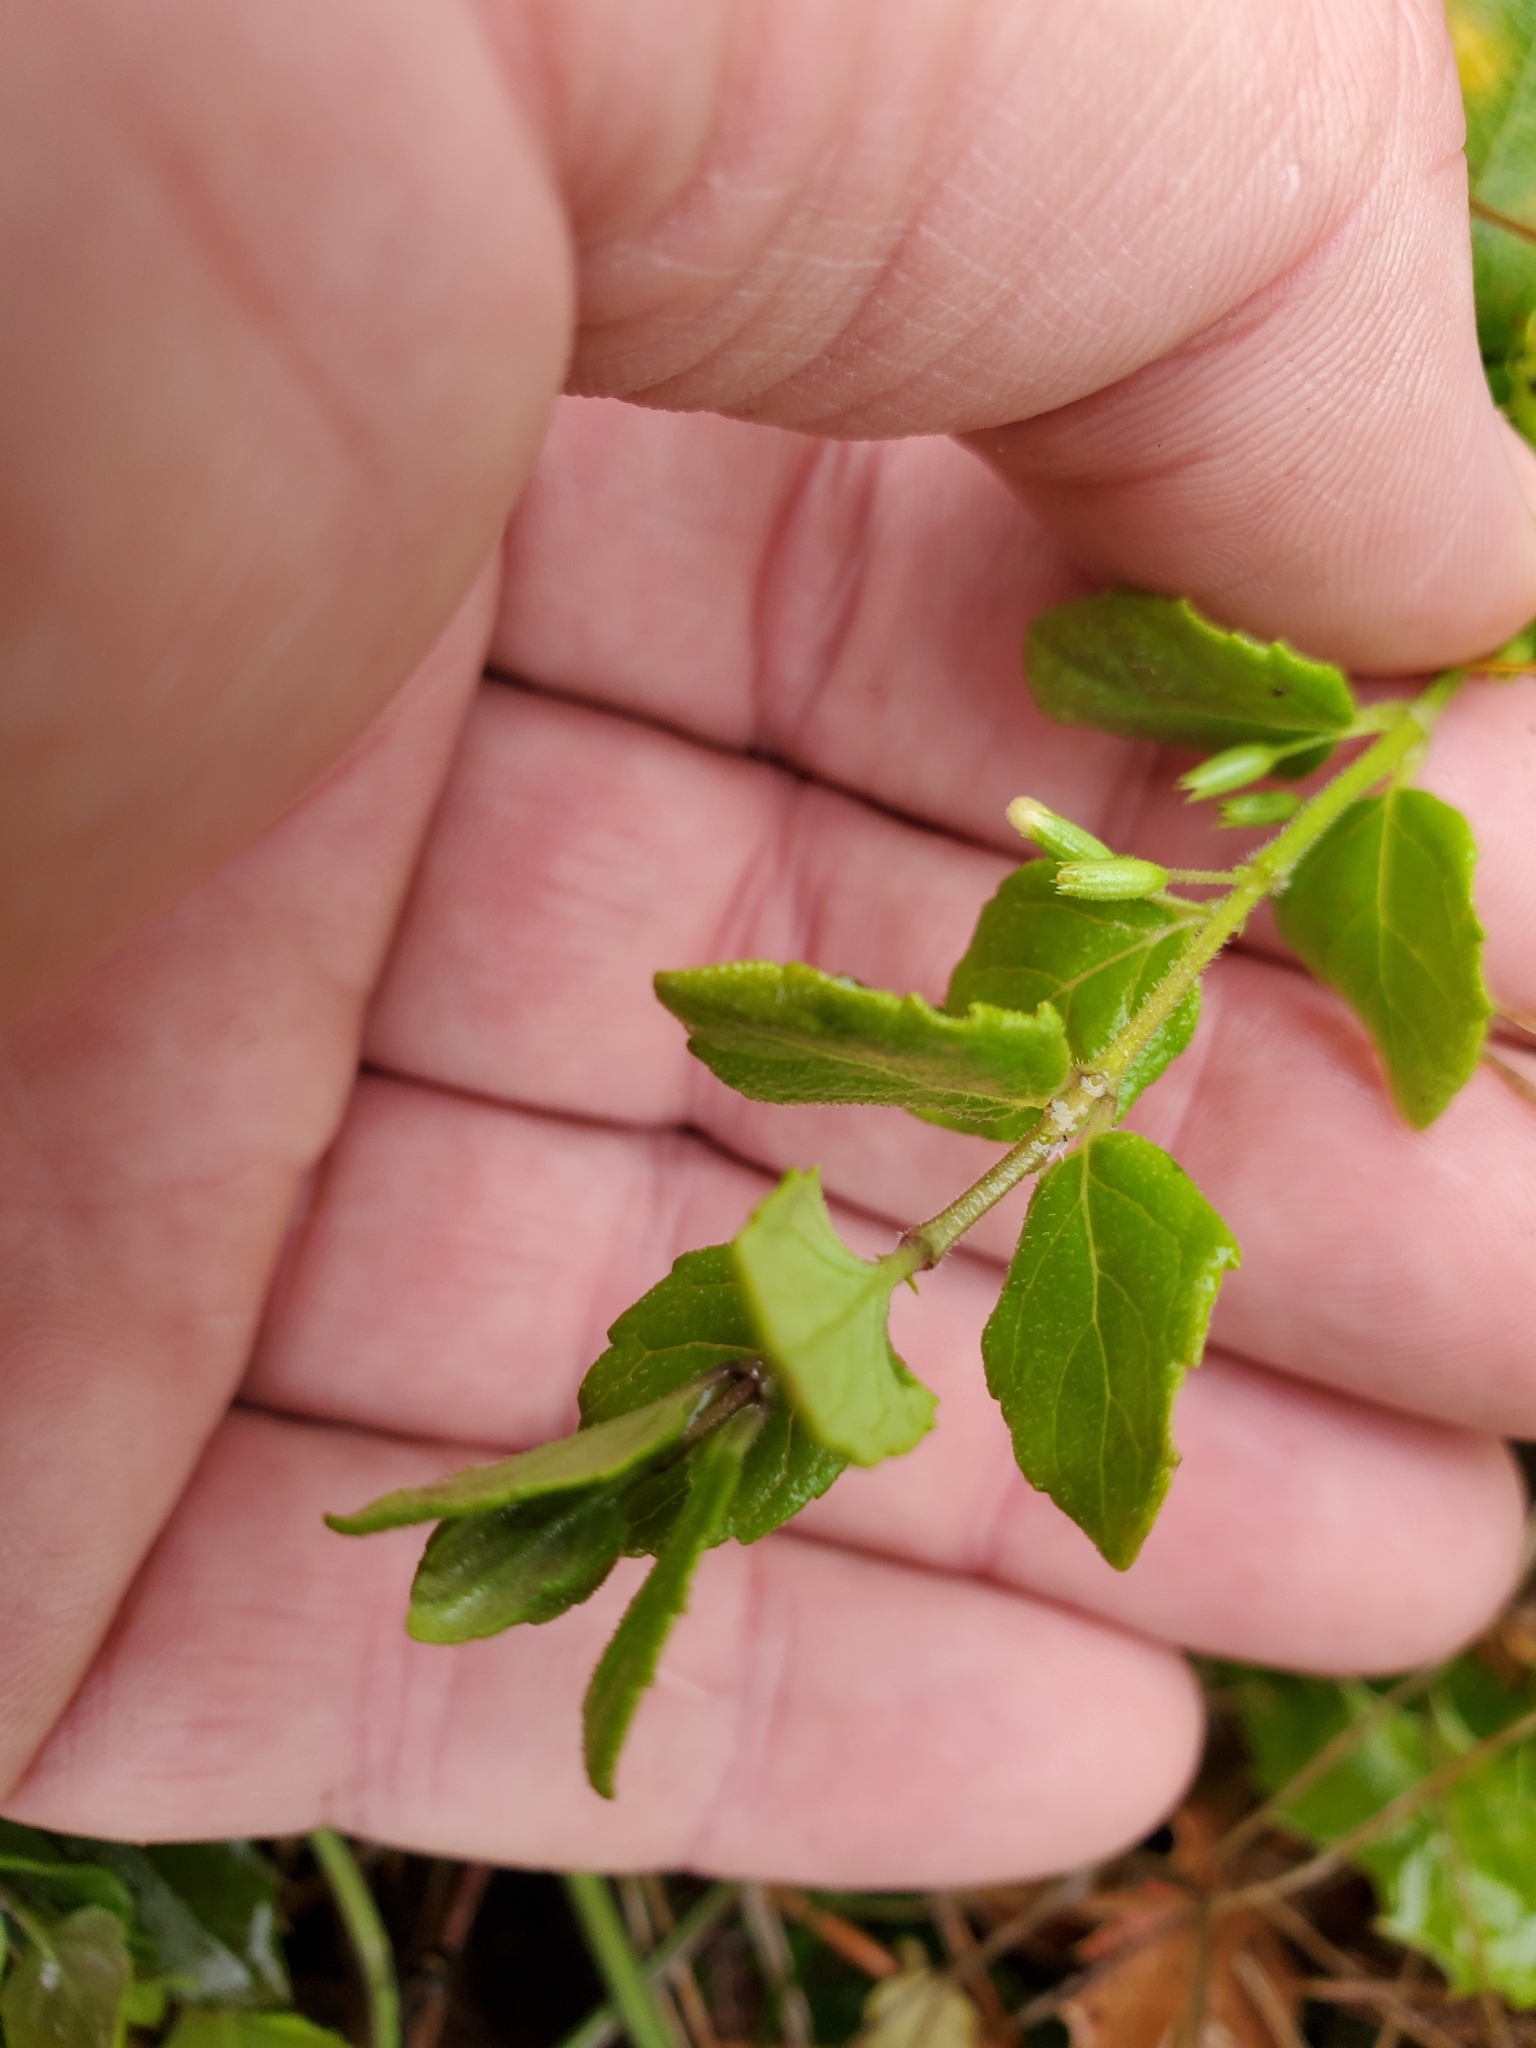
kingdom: Plantae
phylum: Tracheophyta
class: Magnoliopsida
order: Lamiales
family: Lamiaceae
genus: Micromeria
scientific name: Micromeria douglasii
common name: Yerba buena
